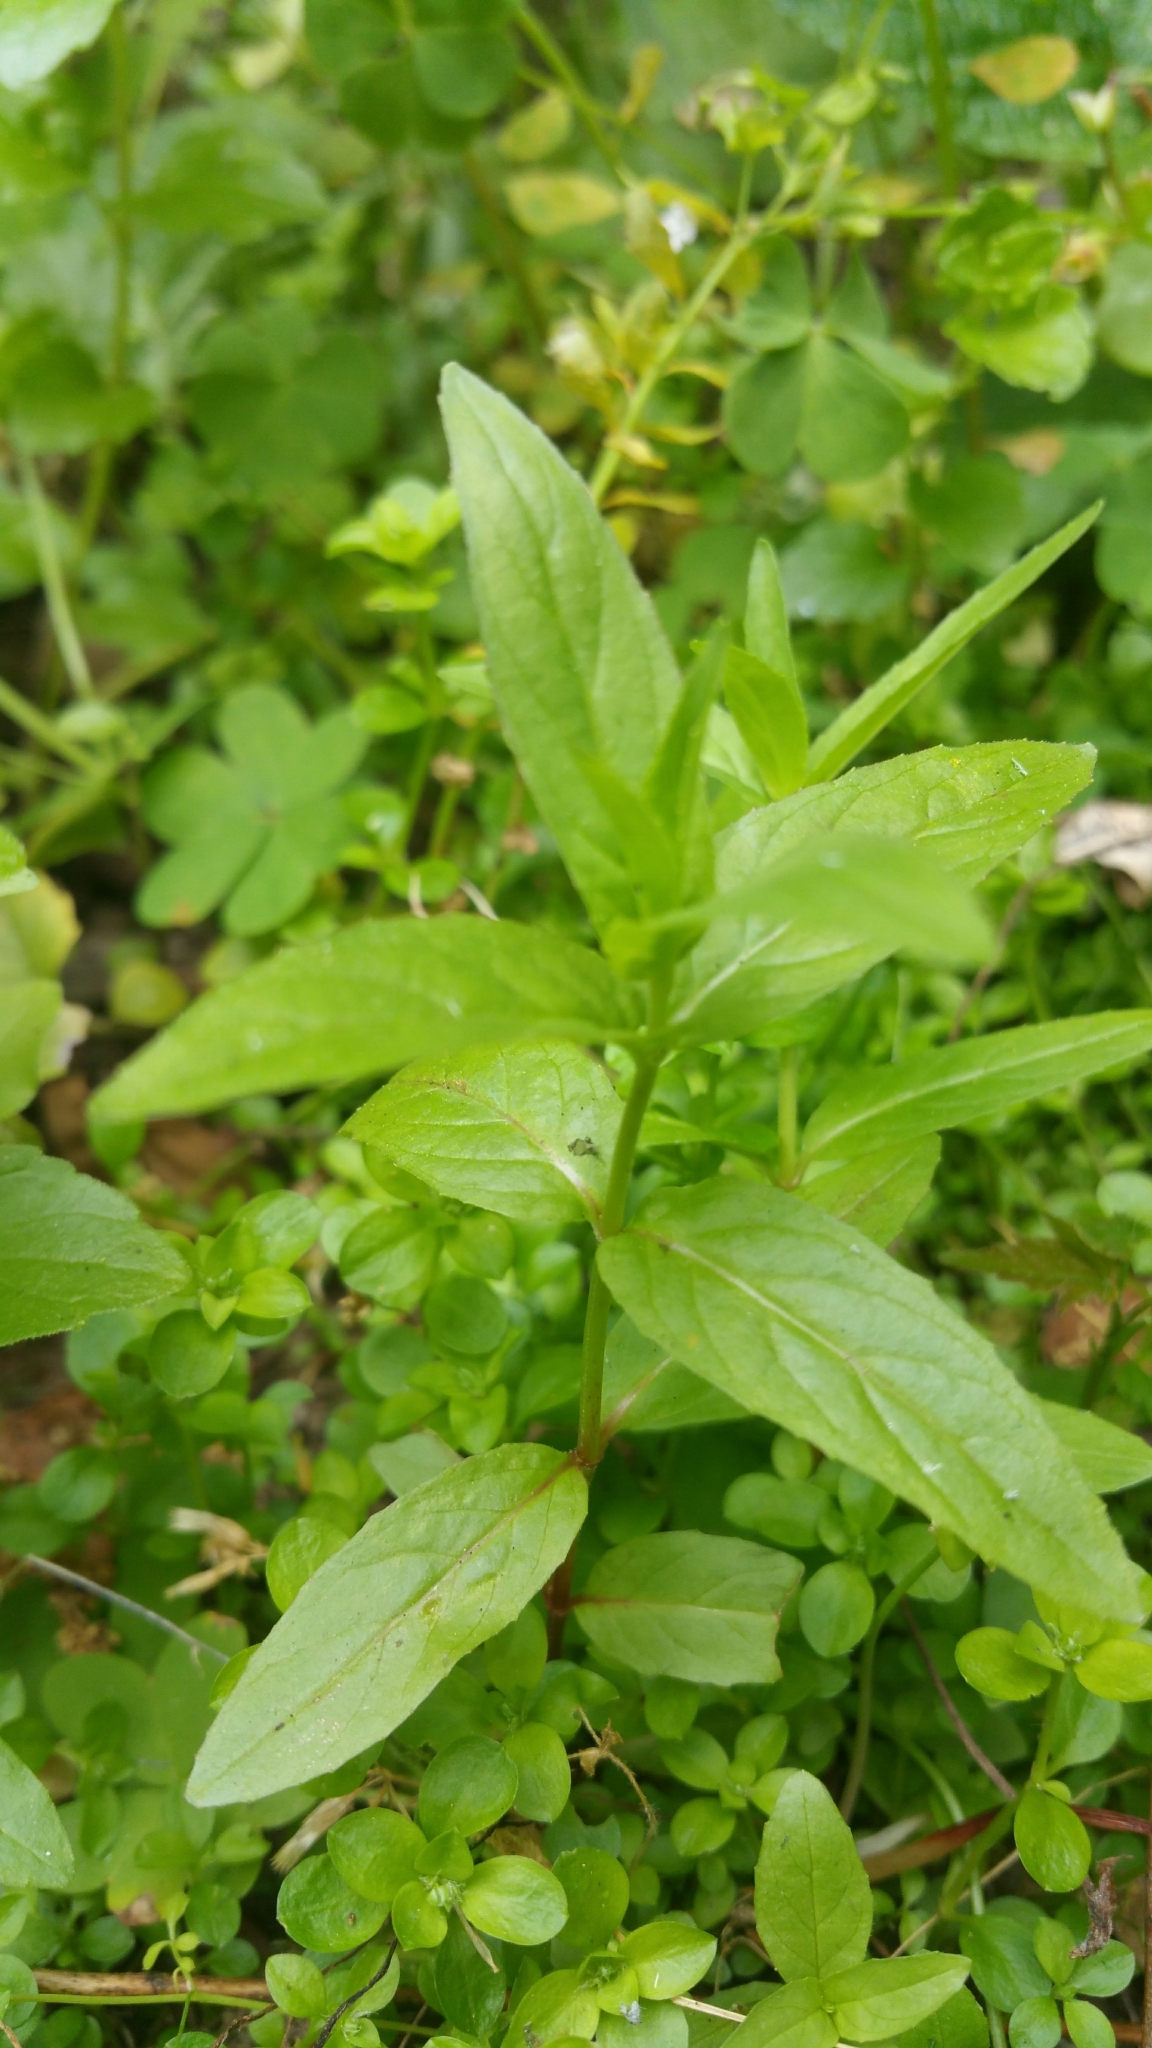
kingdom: Plantae
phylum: Tracheophyta
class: Magnoliopsida
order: Myrtales
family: Onagraceae
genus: Epilobium
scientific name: Epilobium ciliatum
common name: American willowherb
